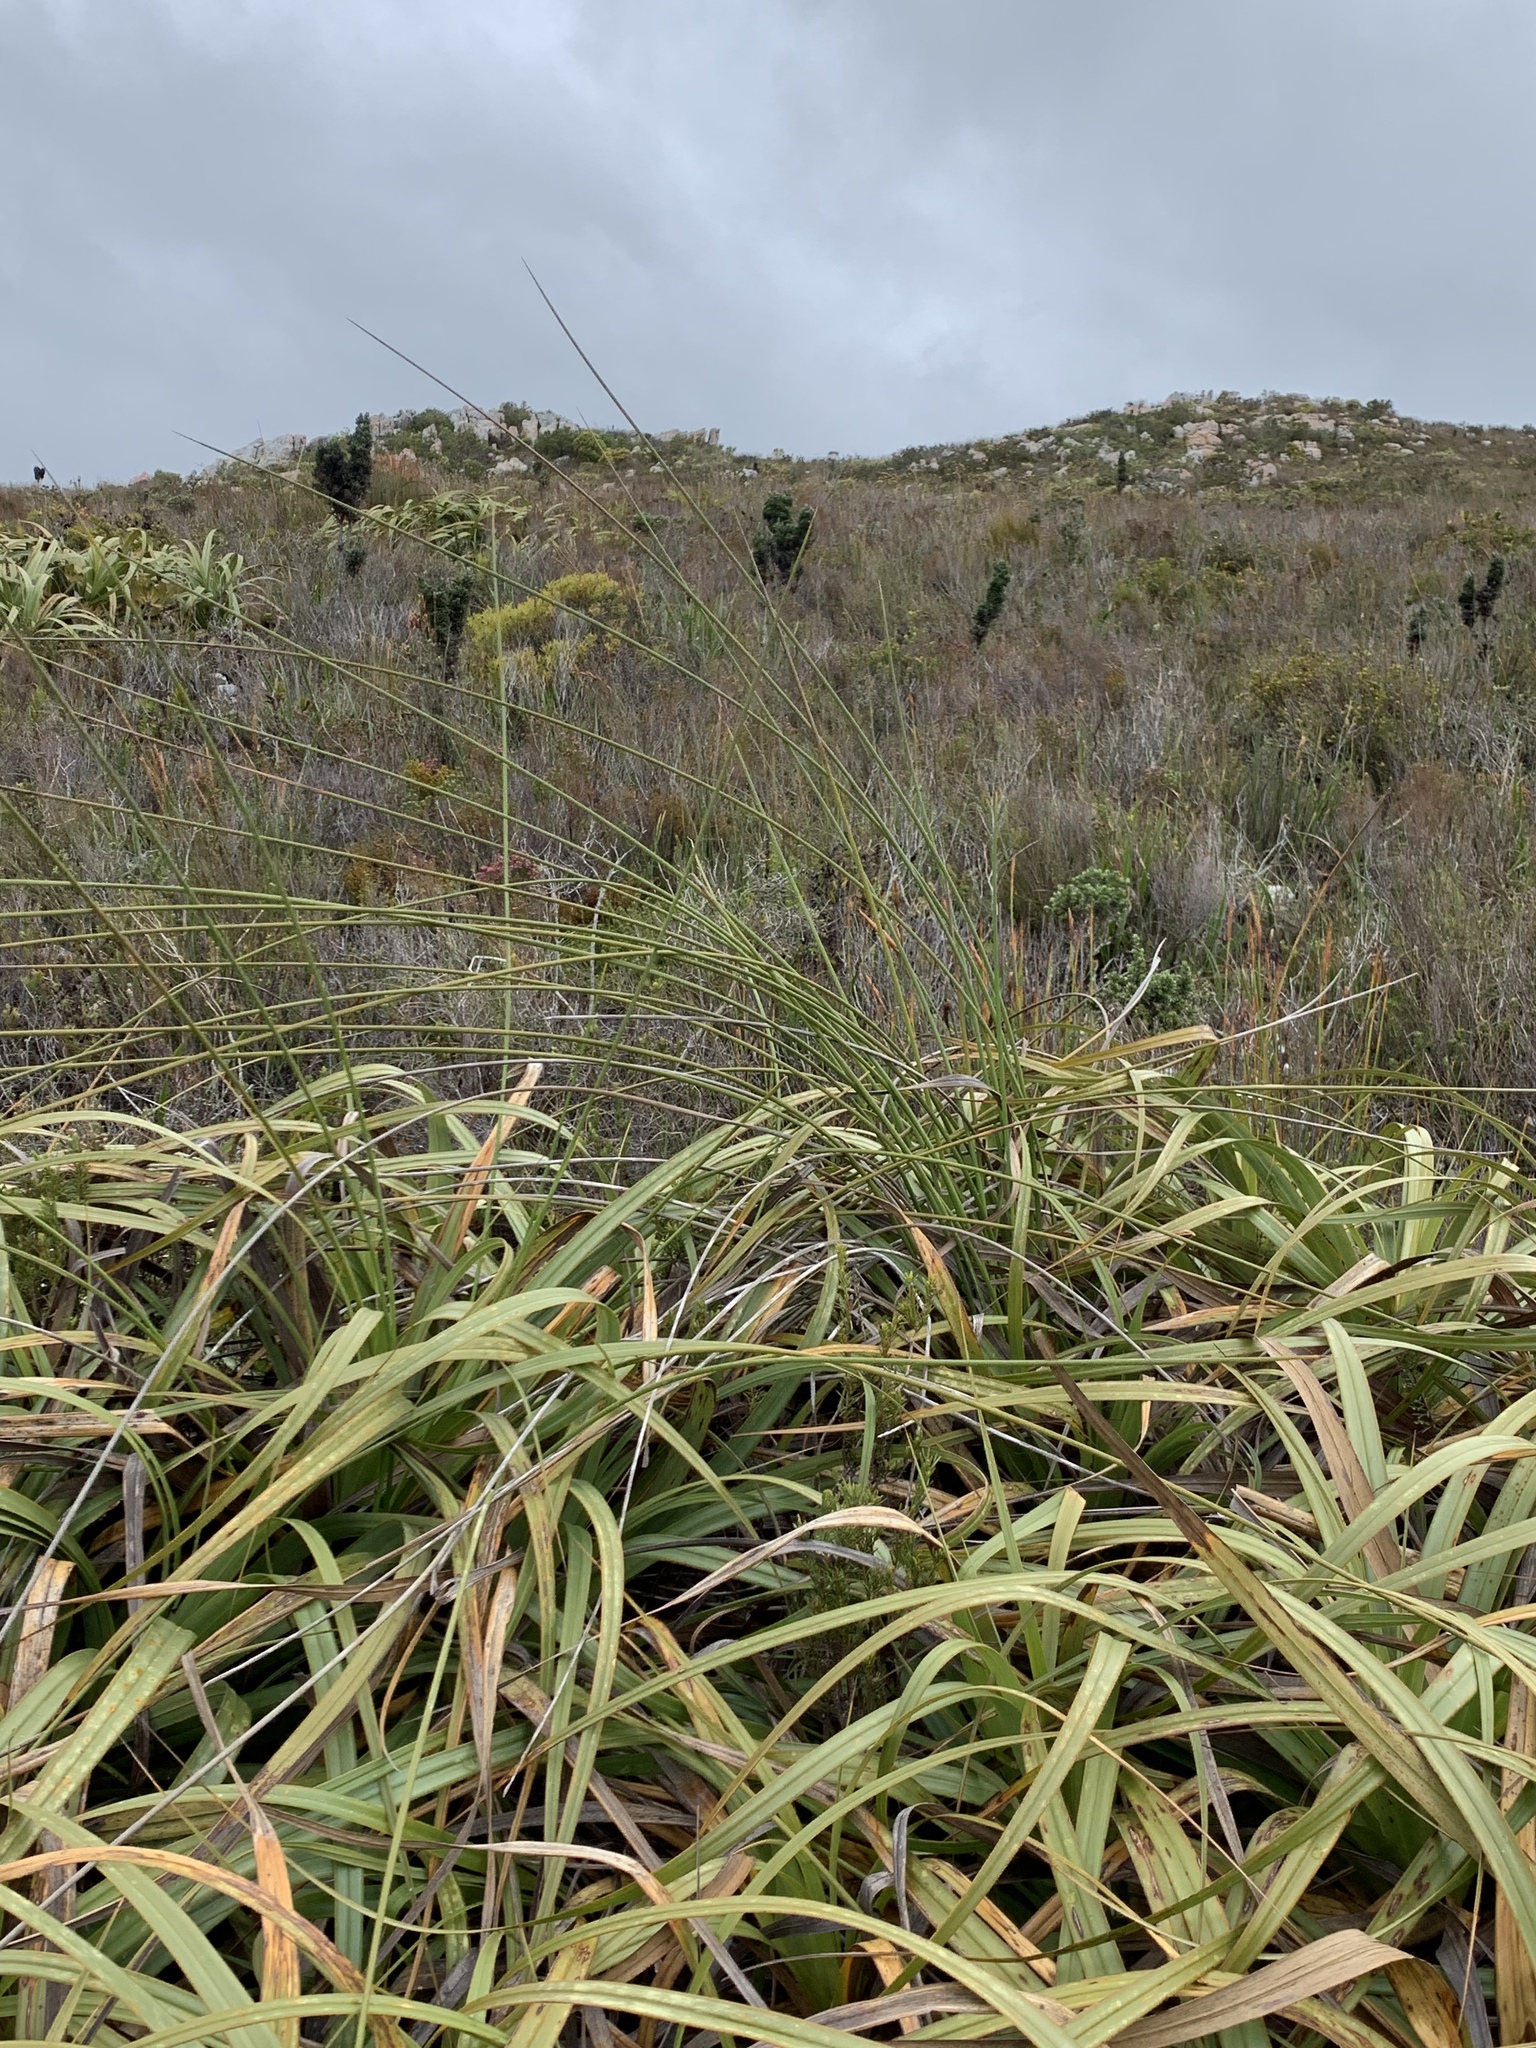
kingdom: Plantae
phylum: Tracheophyta
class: Liliopsida
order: Poales
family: Cyperaceae
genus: Tetraria
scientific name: Tetraria thermalis
